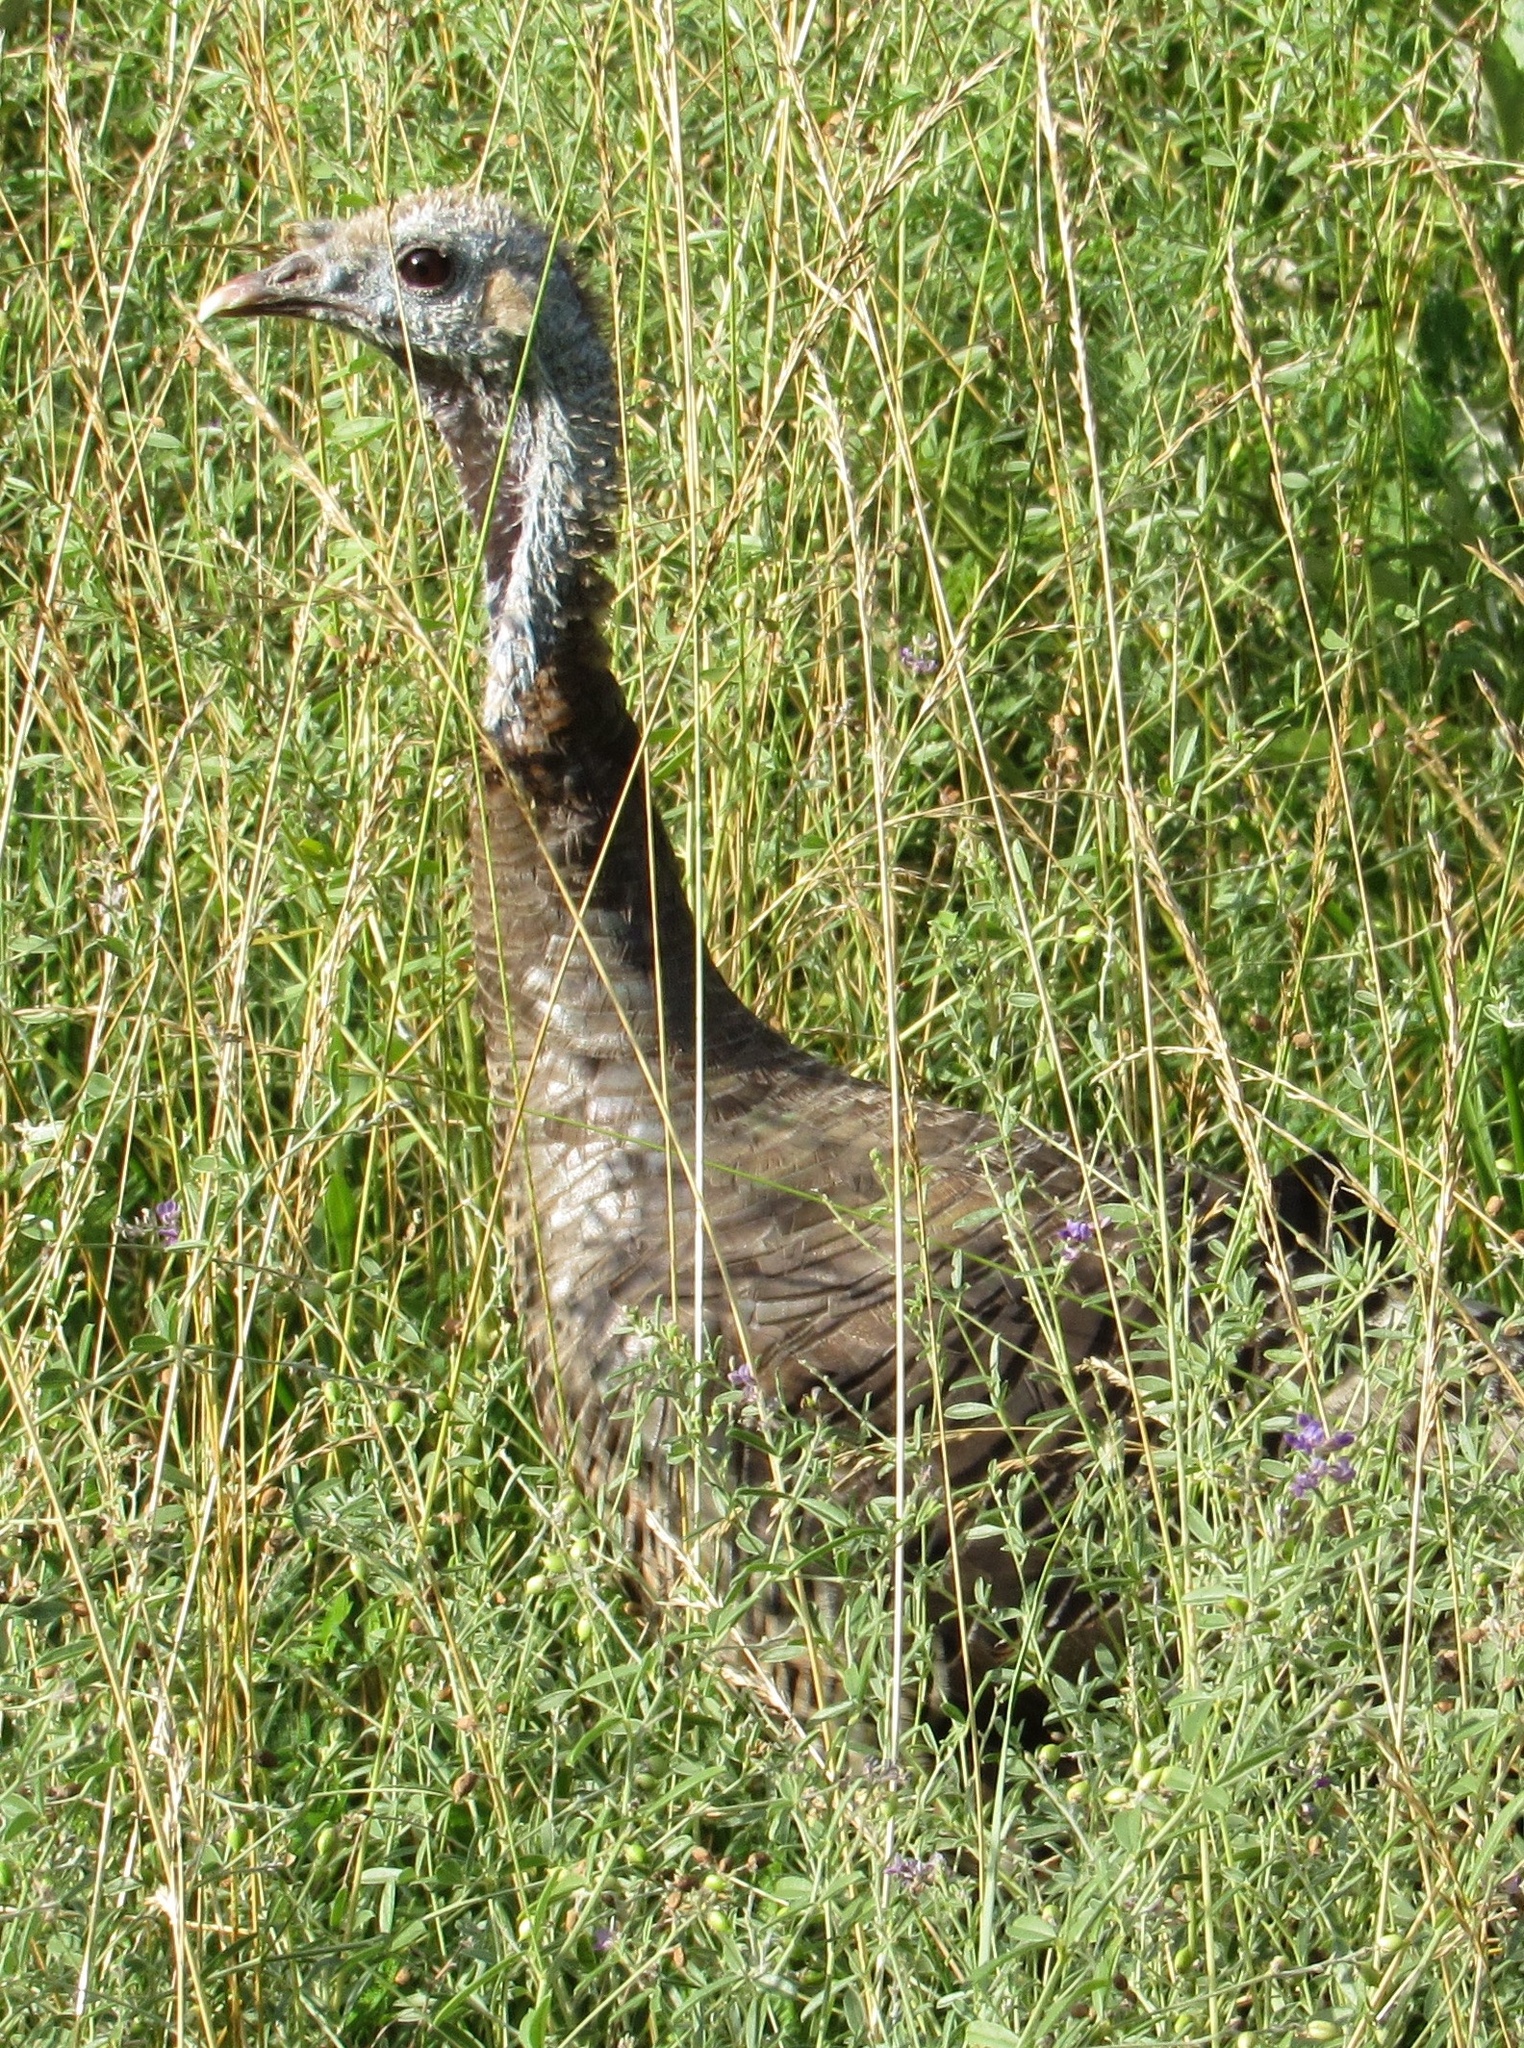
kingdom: Animalia
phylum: Chordata
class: Aves
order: Galliformes
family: Phasianidae
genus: Meleagris
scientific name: Meleagris gallopavo
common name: Wild turkey
